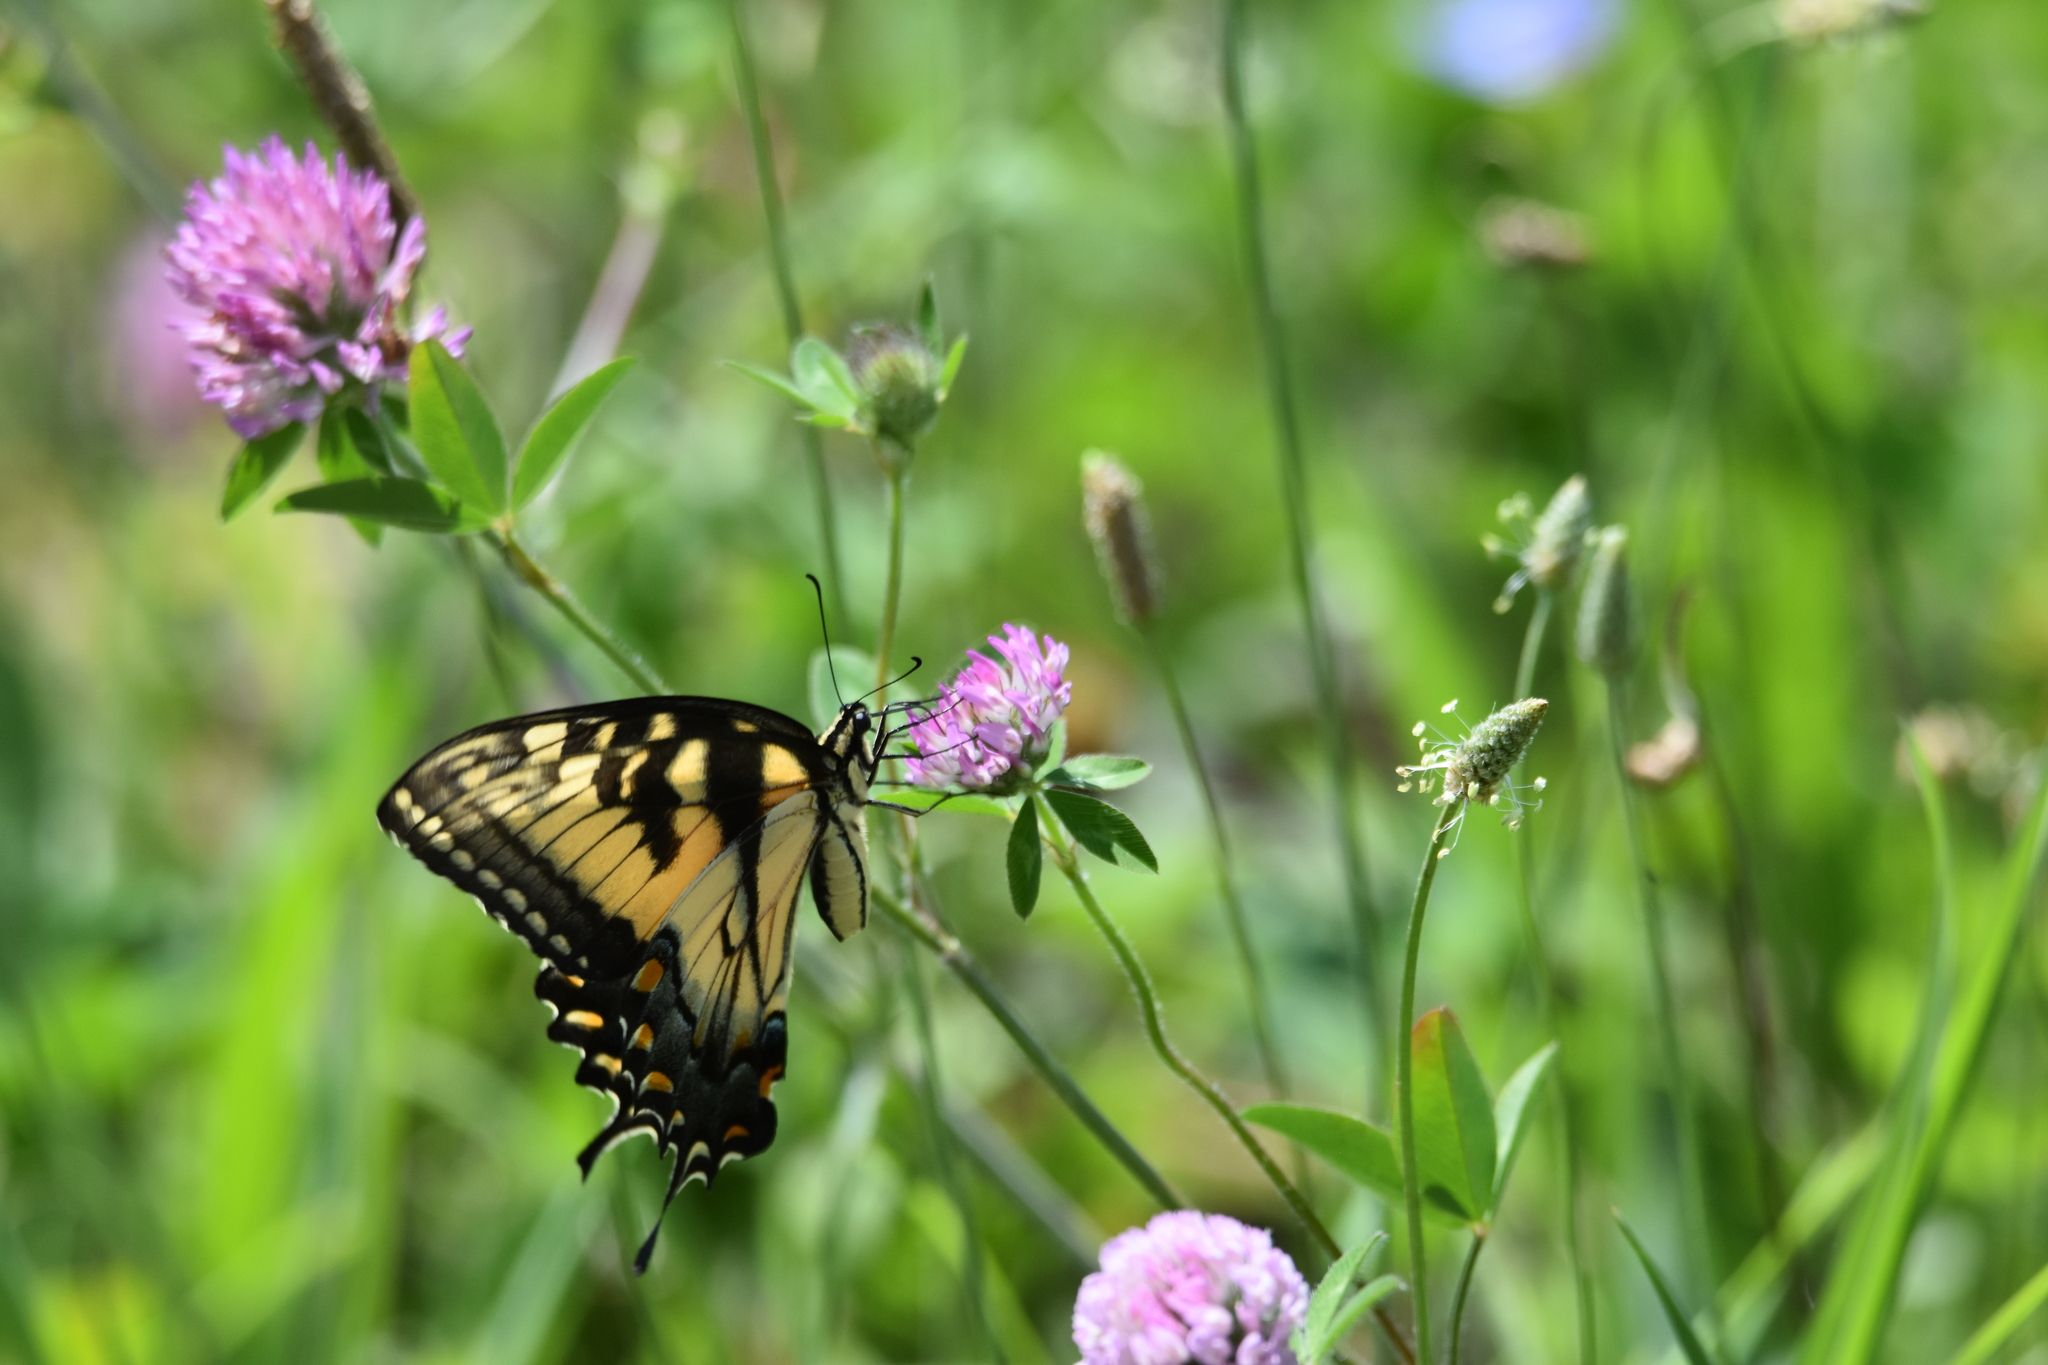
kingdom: Animalia
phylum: Arthropoda
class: Insecta
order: Lepidoptera
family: Papilionidae
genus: Papilio
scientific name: Papilio glaucus
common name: Tiger swallowtail
